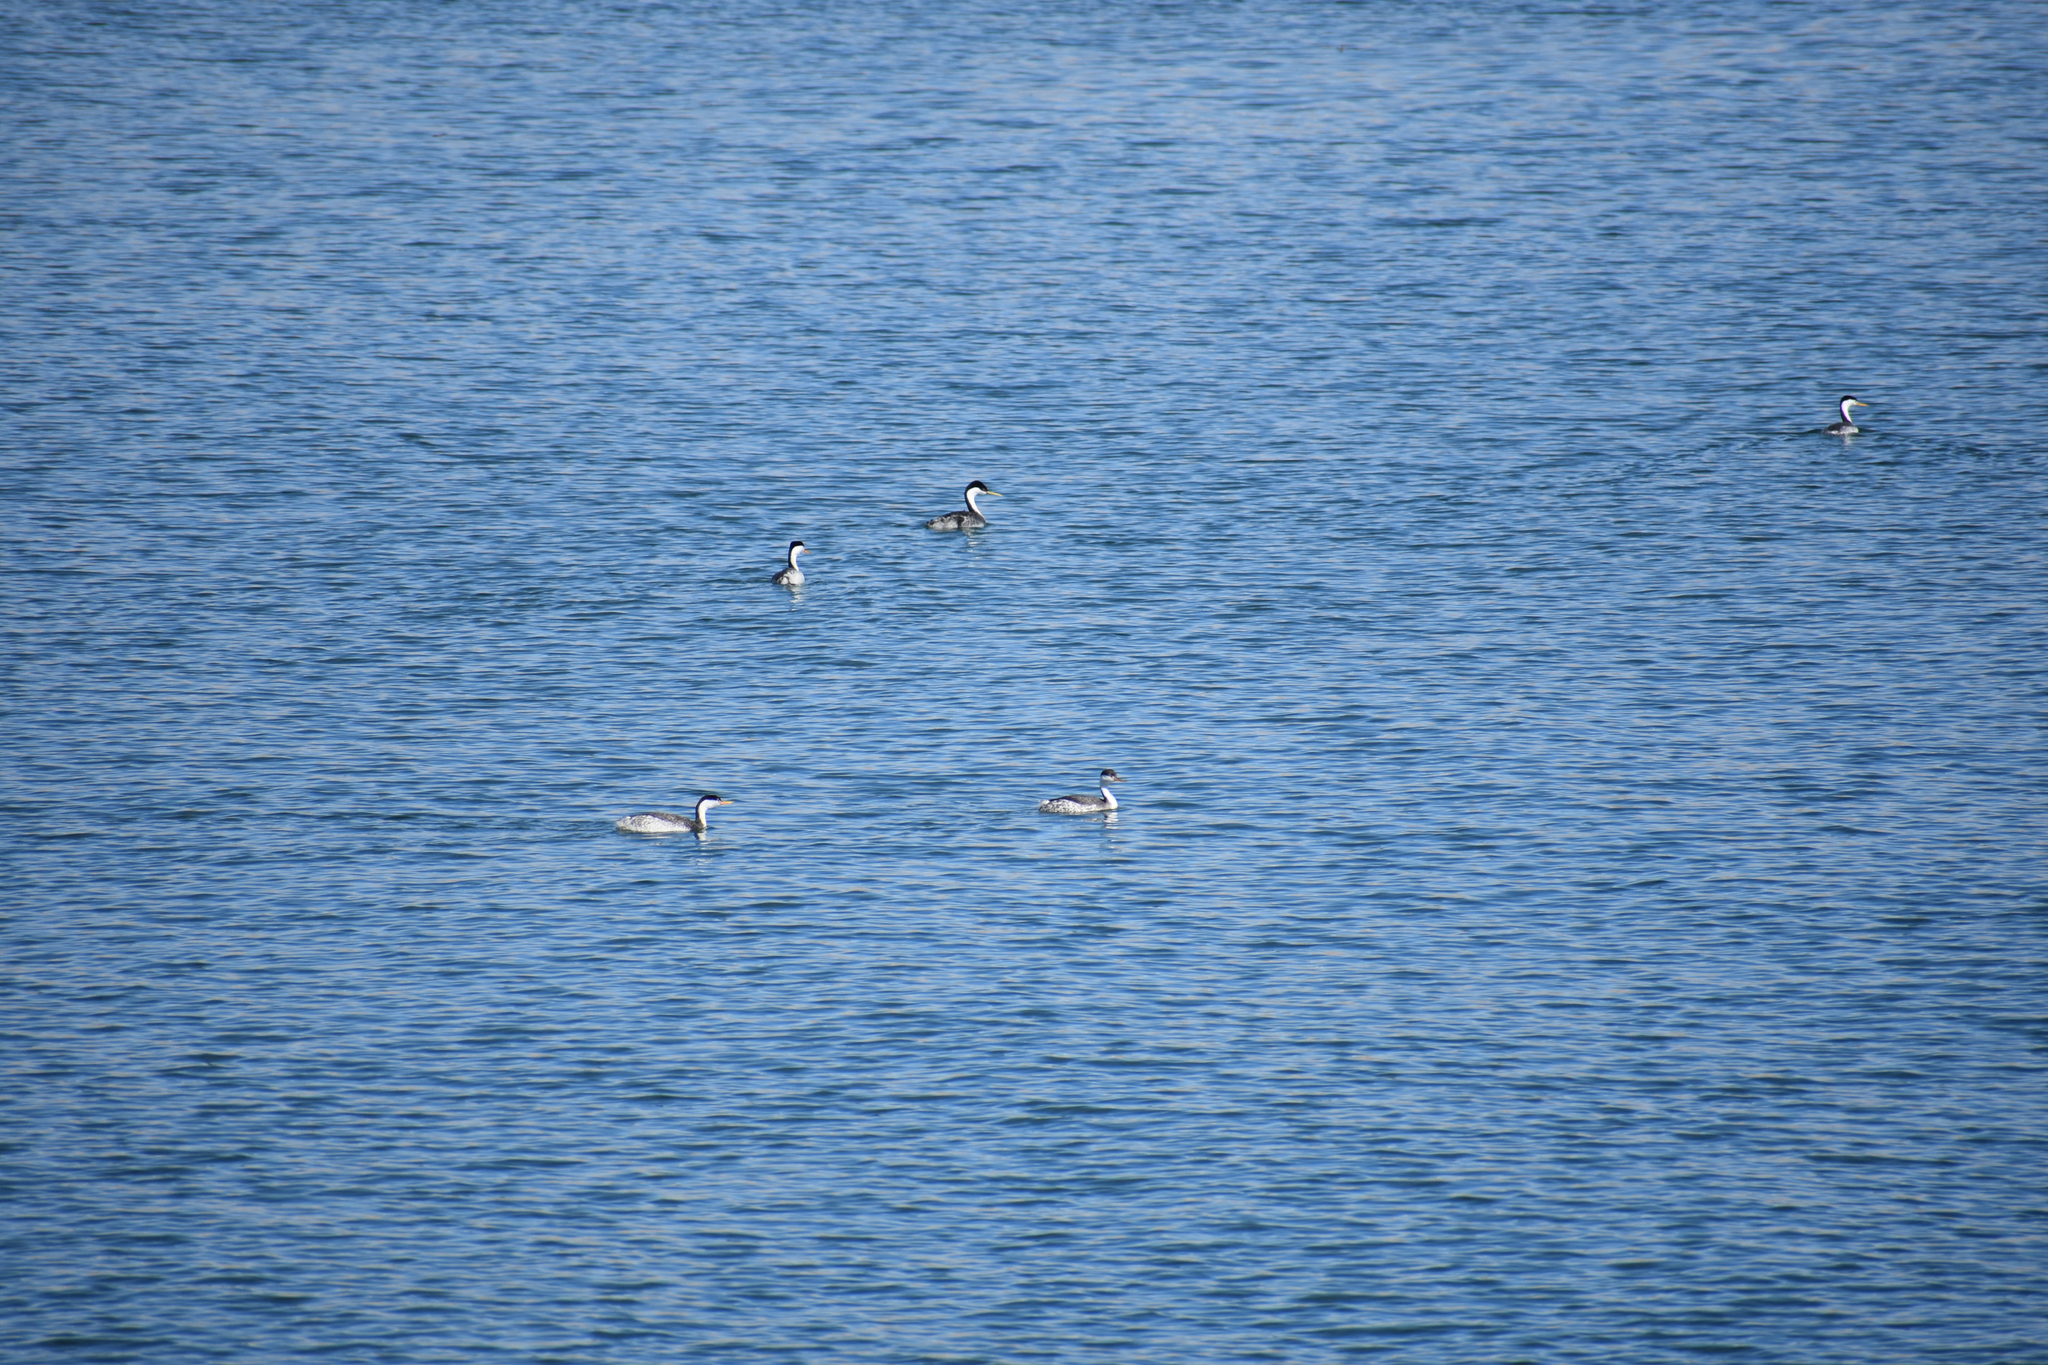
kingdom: Animalia
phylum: Chordata
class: Aves
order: Podicipediformes
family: Podicipedidae
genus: Aechmophorus
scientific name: Aechmophorus occidentalis
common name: Western grebe
